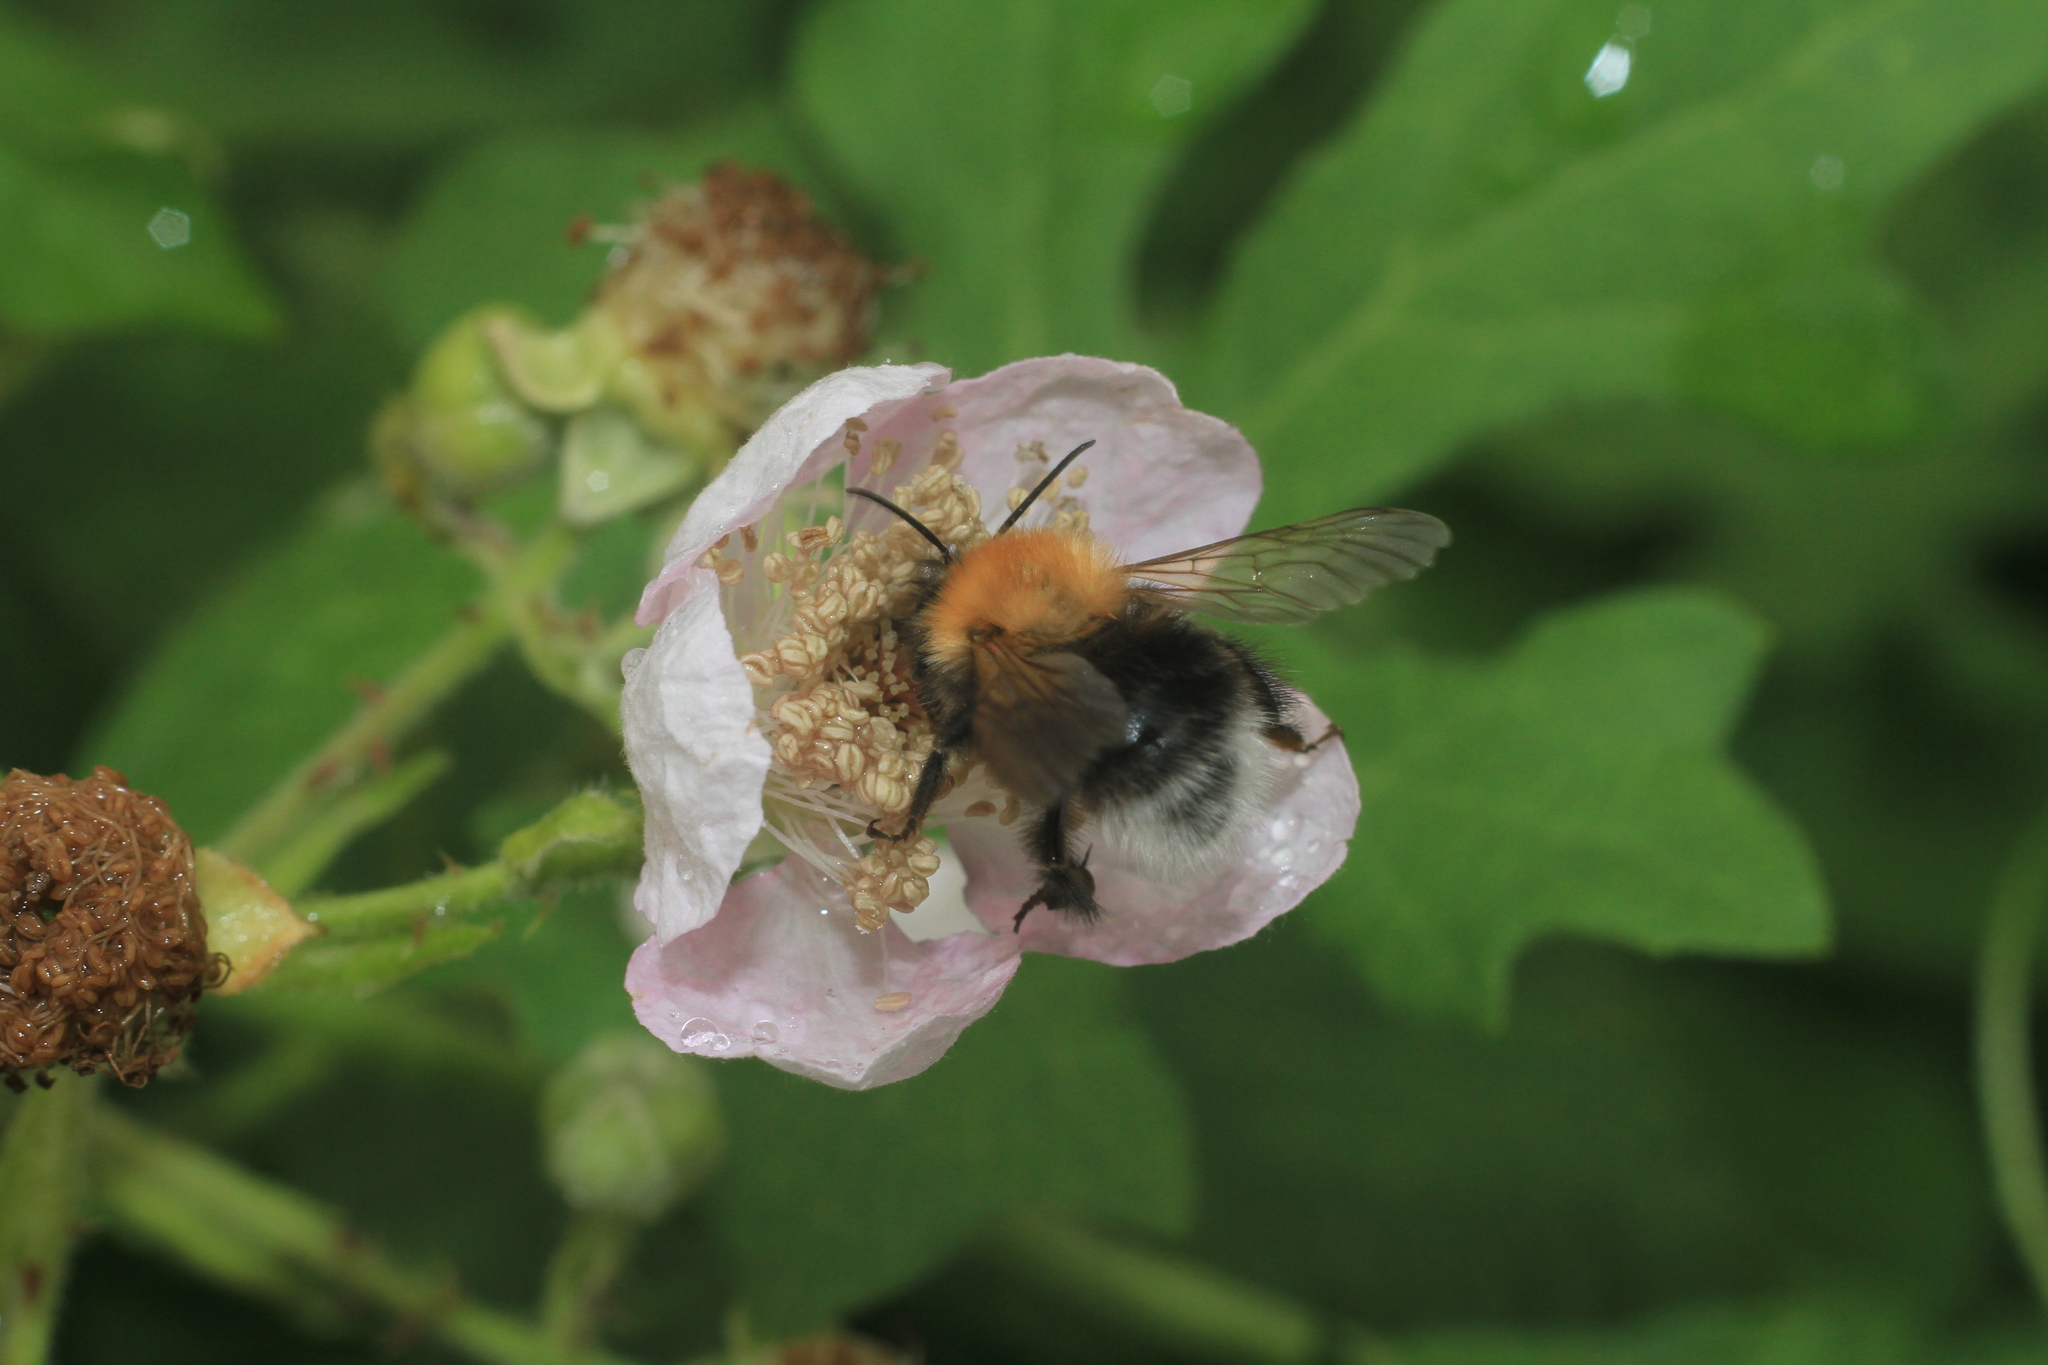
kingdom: Animalia
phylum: Arthropoda
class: Insecta
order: Hymenoptera
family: Apidae
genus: Bombus
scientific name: Bombus hypnorum
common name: New garden bumblebee
